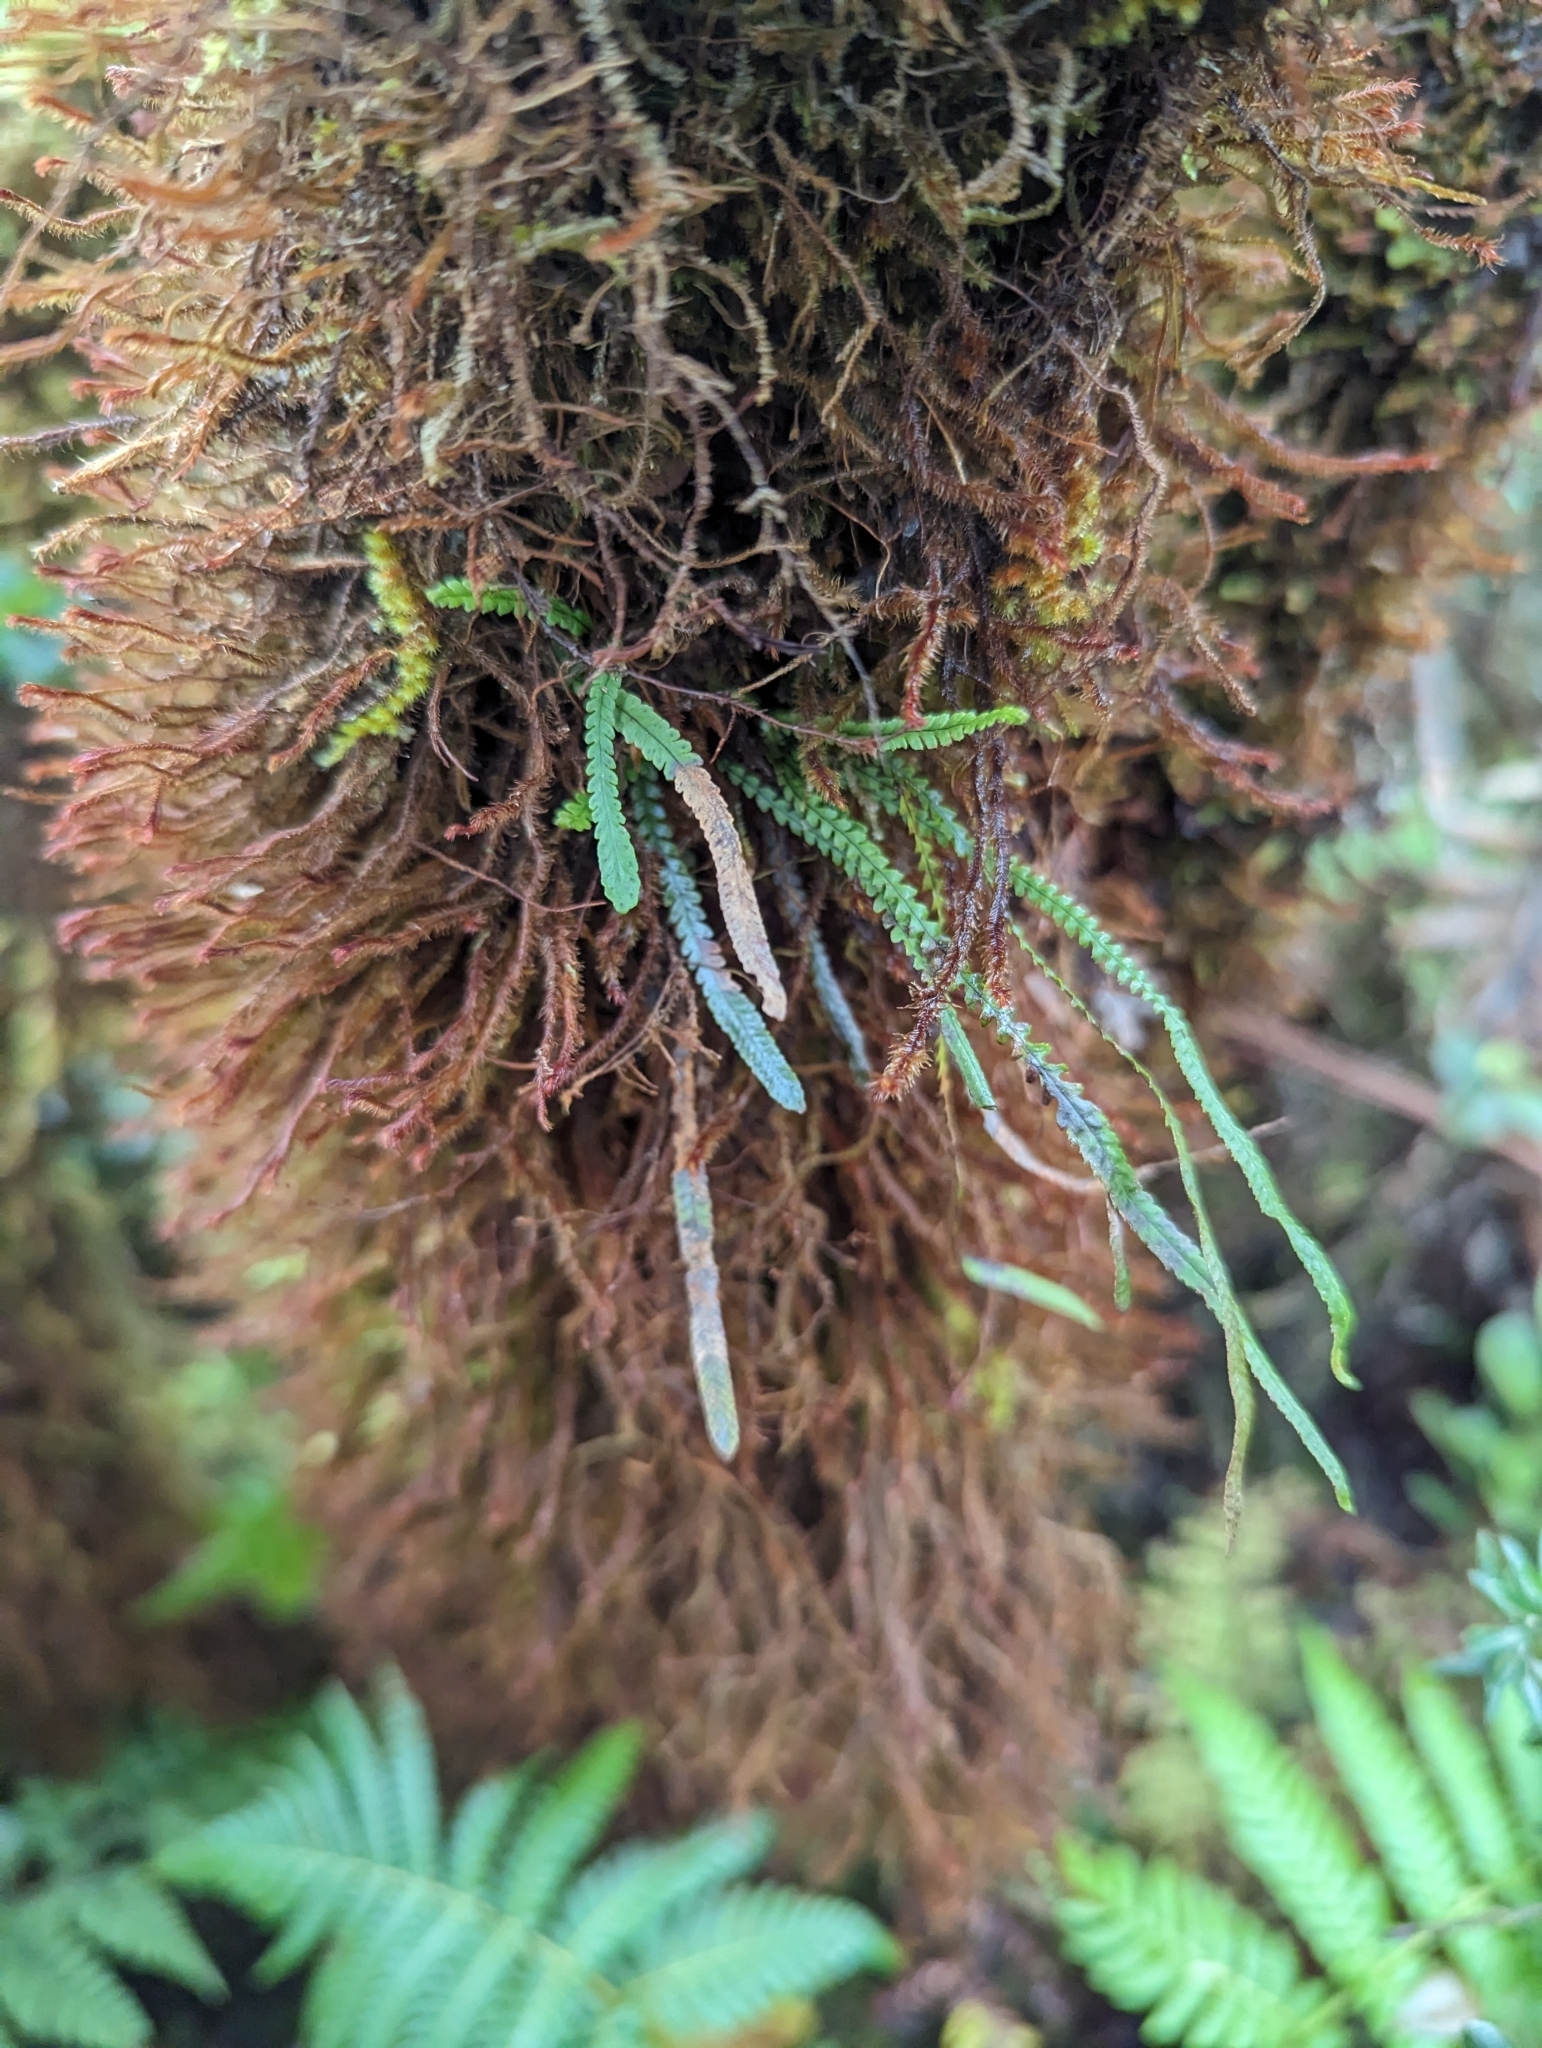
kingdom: Plantae
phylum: Tracheophyta
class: Polypodiopsida
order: Polypodiales
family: Polypodiaceae
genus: Stenogrammitis
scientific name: Stenogrammitis saffordii
